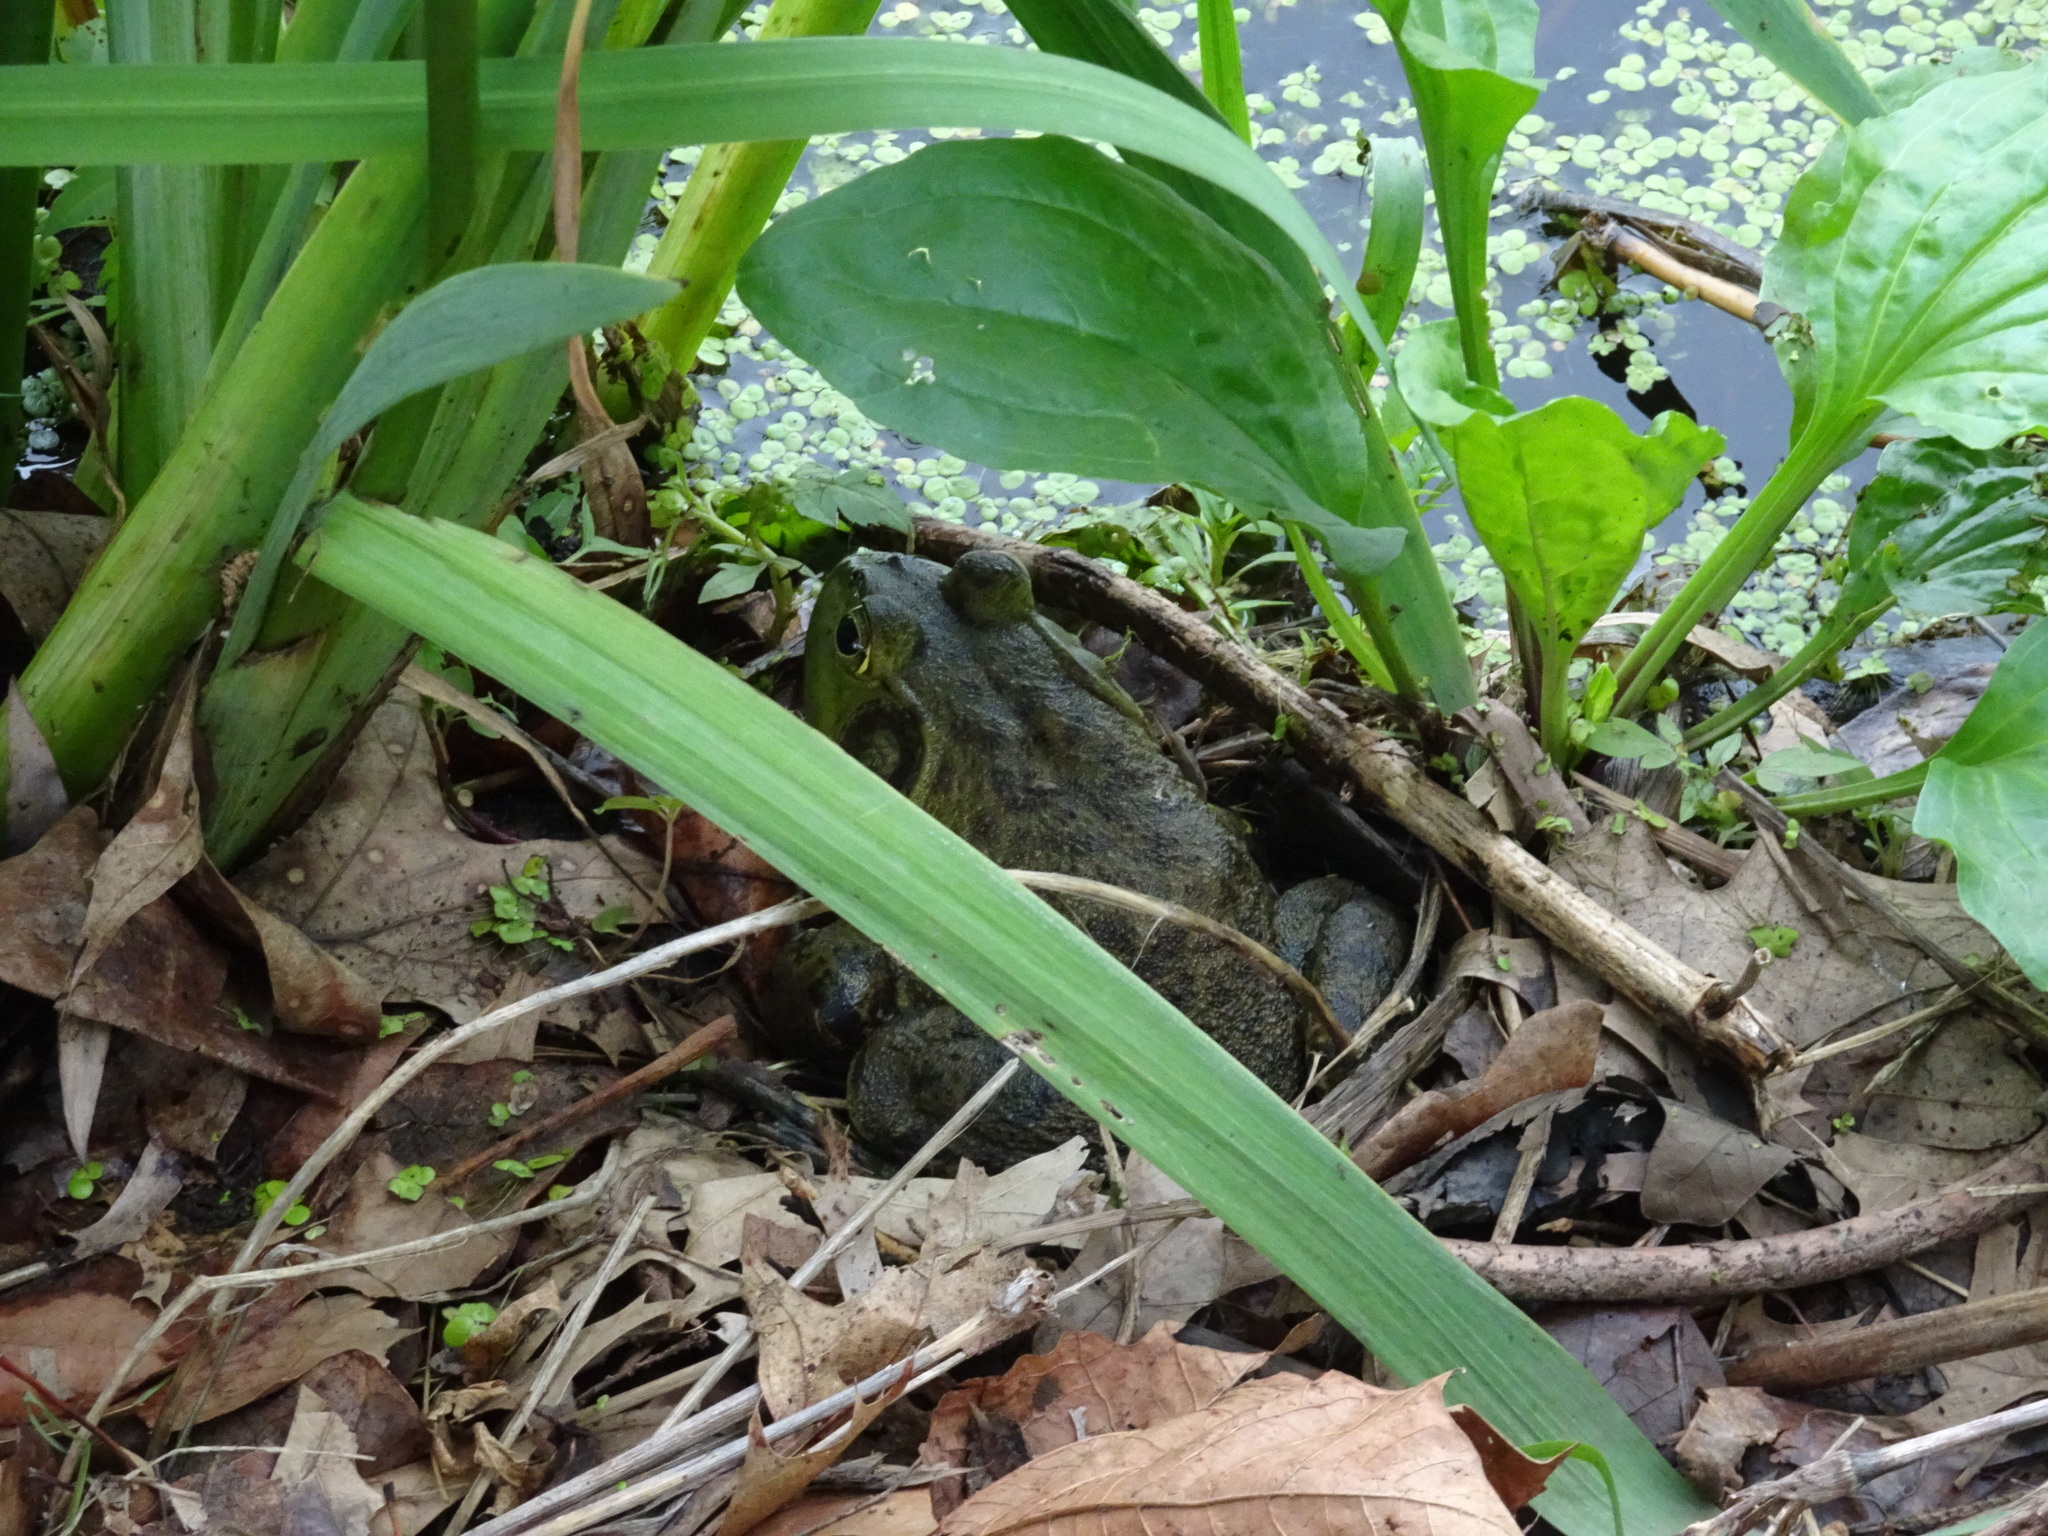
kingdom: Animalia
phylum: Chordata
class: Amphibia
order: Anura
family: Ranidae
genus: Lithobates
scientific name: Lithobates catesbeianus
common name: American bullfrog
